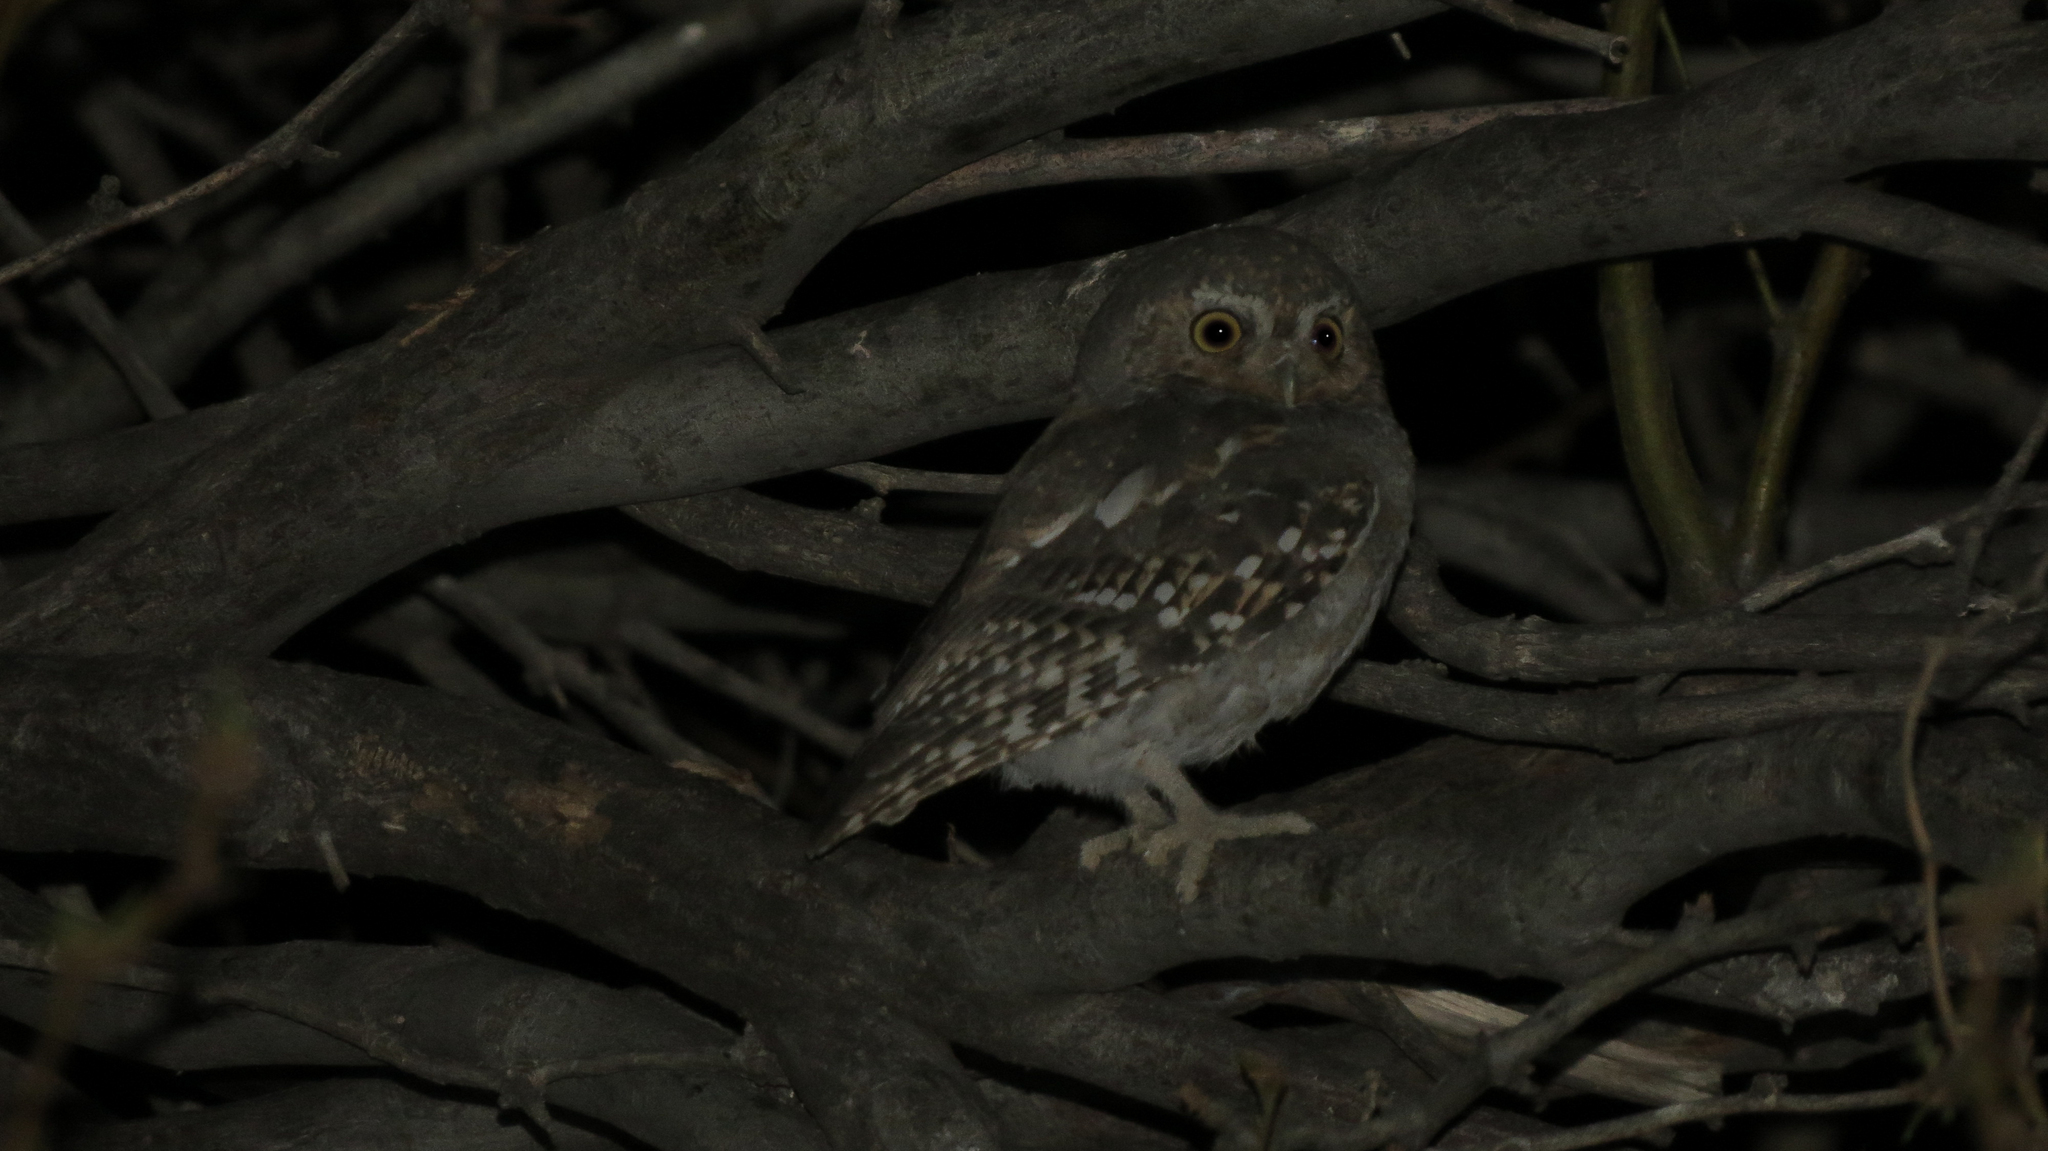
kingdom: Animalia
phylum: Chordata
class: Aves
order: Strigiformes
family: Strigidae
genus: Micrathene
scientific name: Micrathene whitneyi
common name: Elf owl
